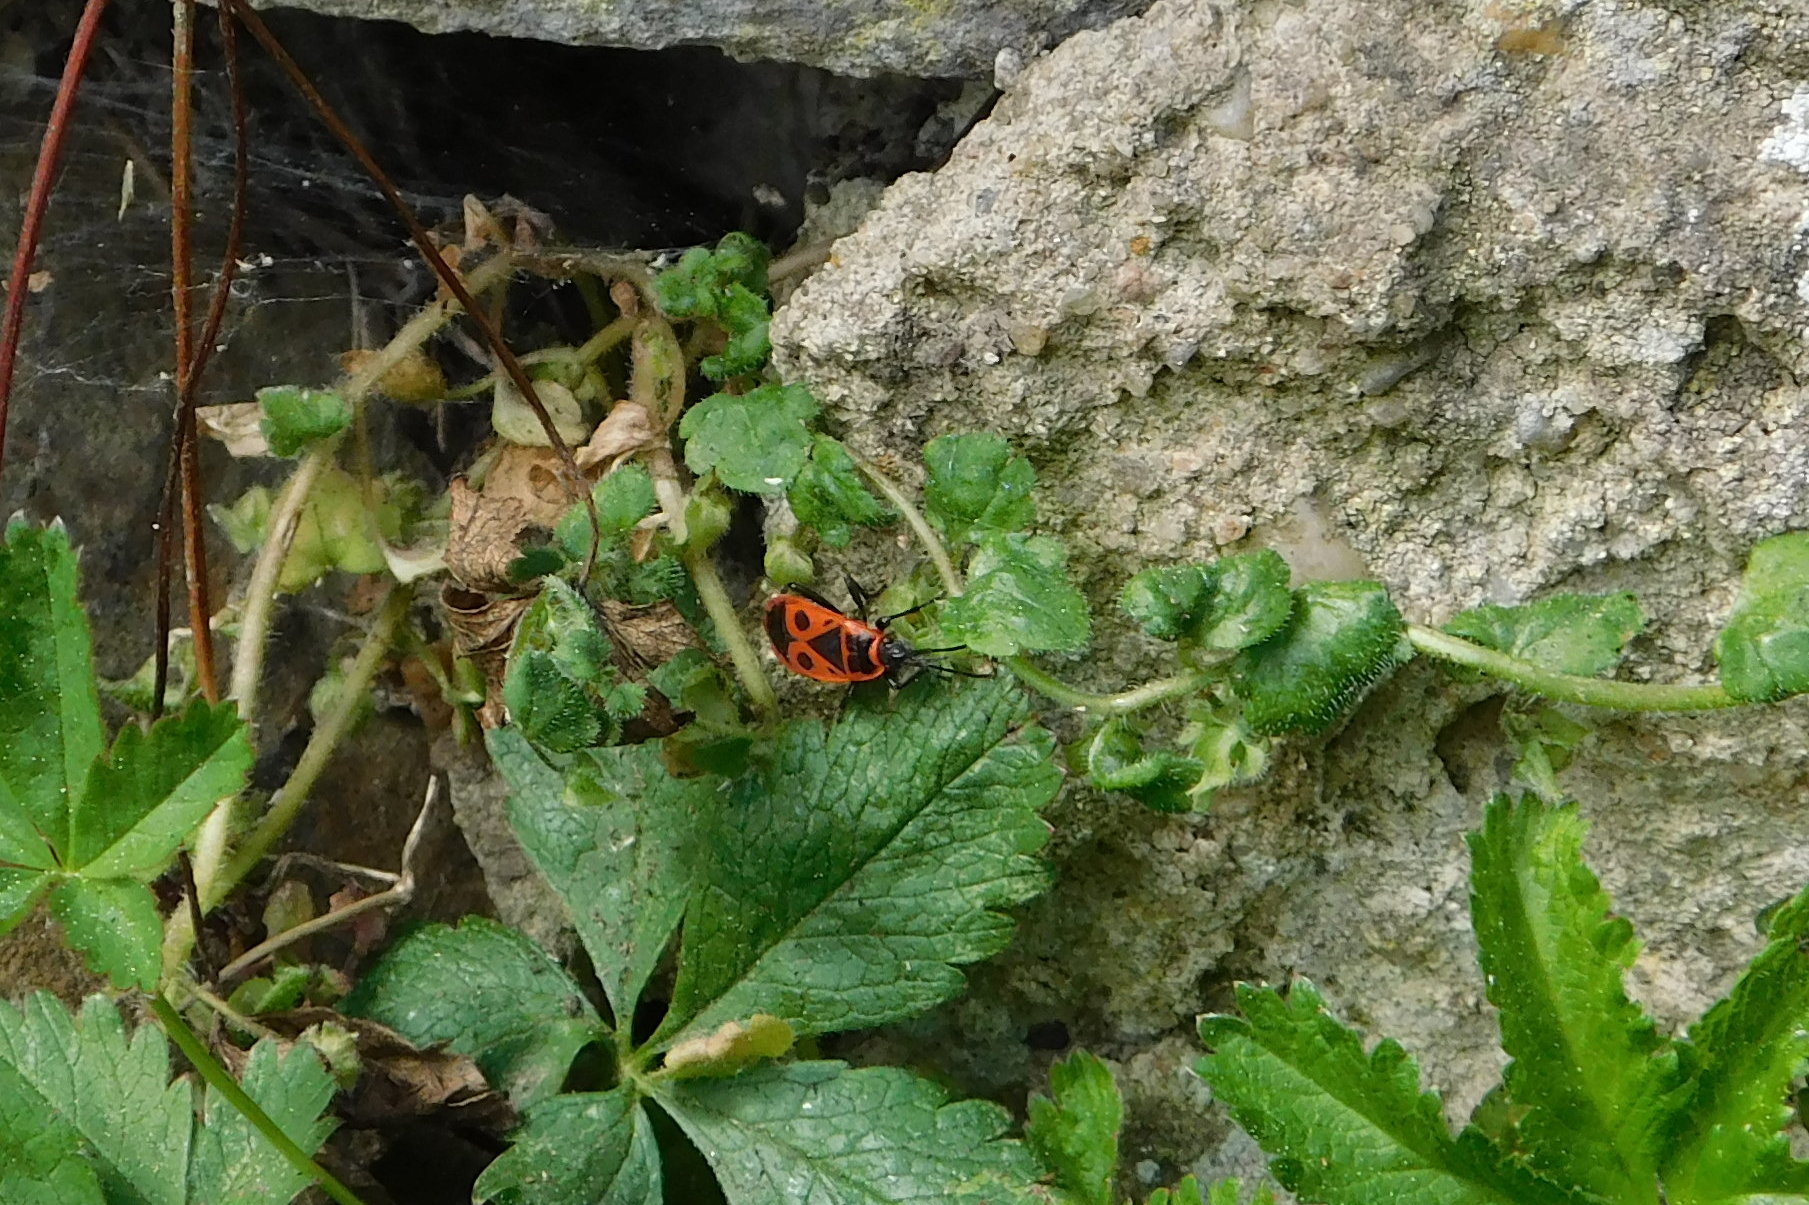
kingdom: Animalia
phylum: Arthropoda
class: Insecta
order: Hemiptera
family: Pyrrhocoridae
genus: Pyrrhocoris
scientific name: Pyrrhocoris apterus
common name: Firebug
